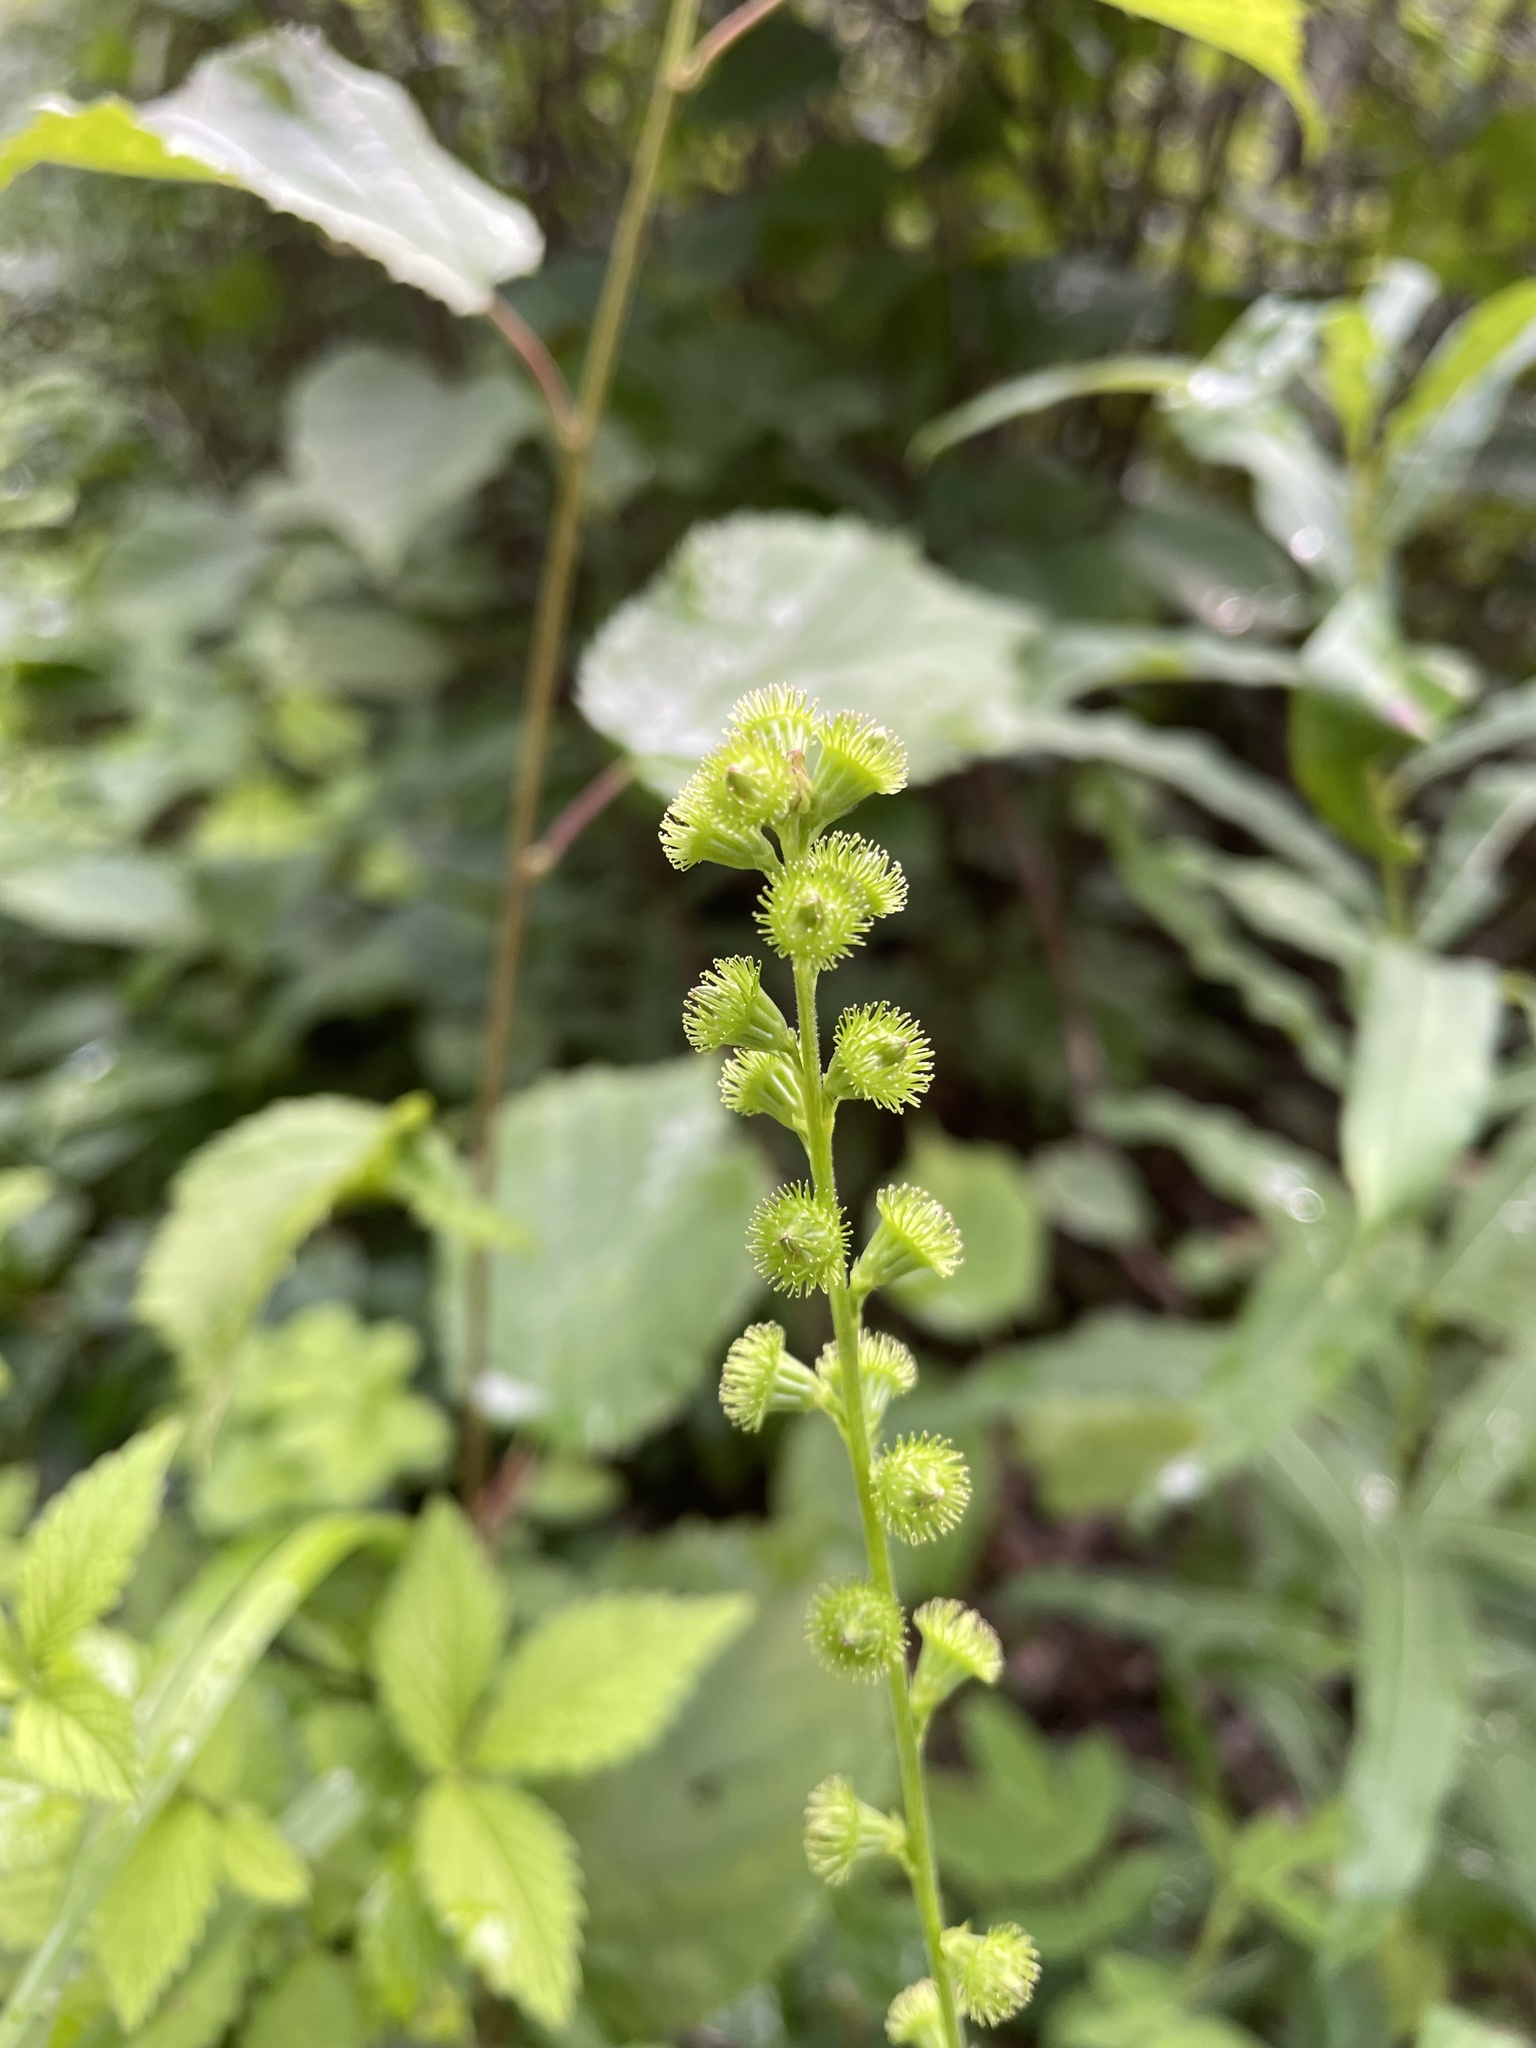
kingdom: Plantae
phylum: Tracheophyta
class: Magnoliopsida
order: Rosales
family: Rosaceae
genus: Agrimonia
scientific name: Agrimonia striata
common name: Britton's agrimony
